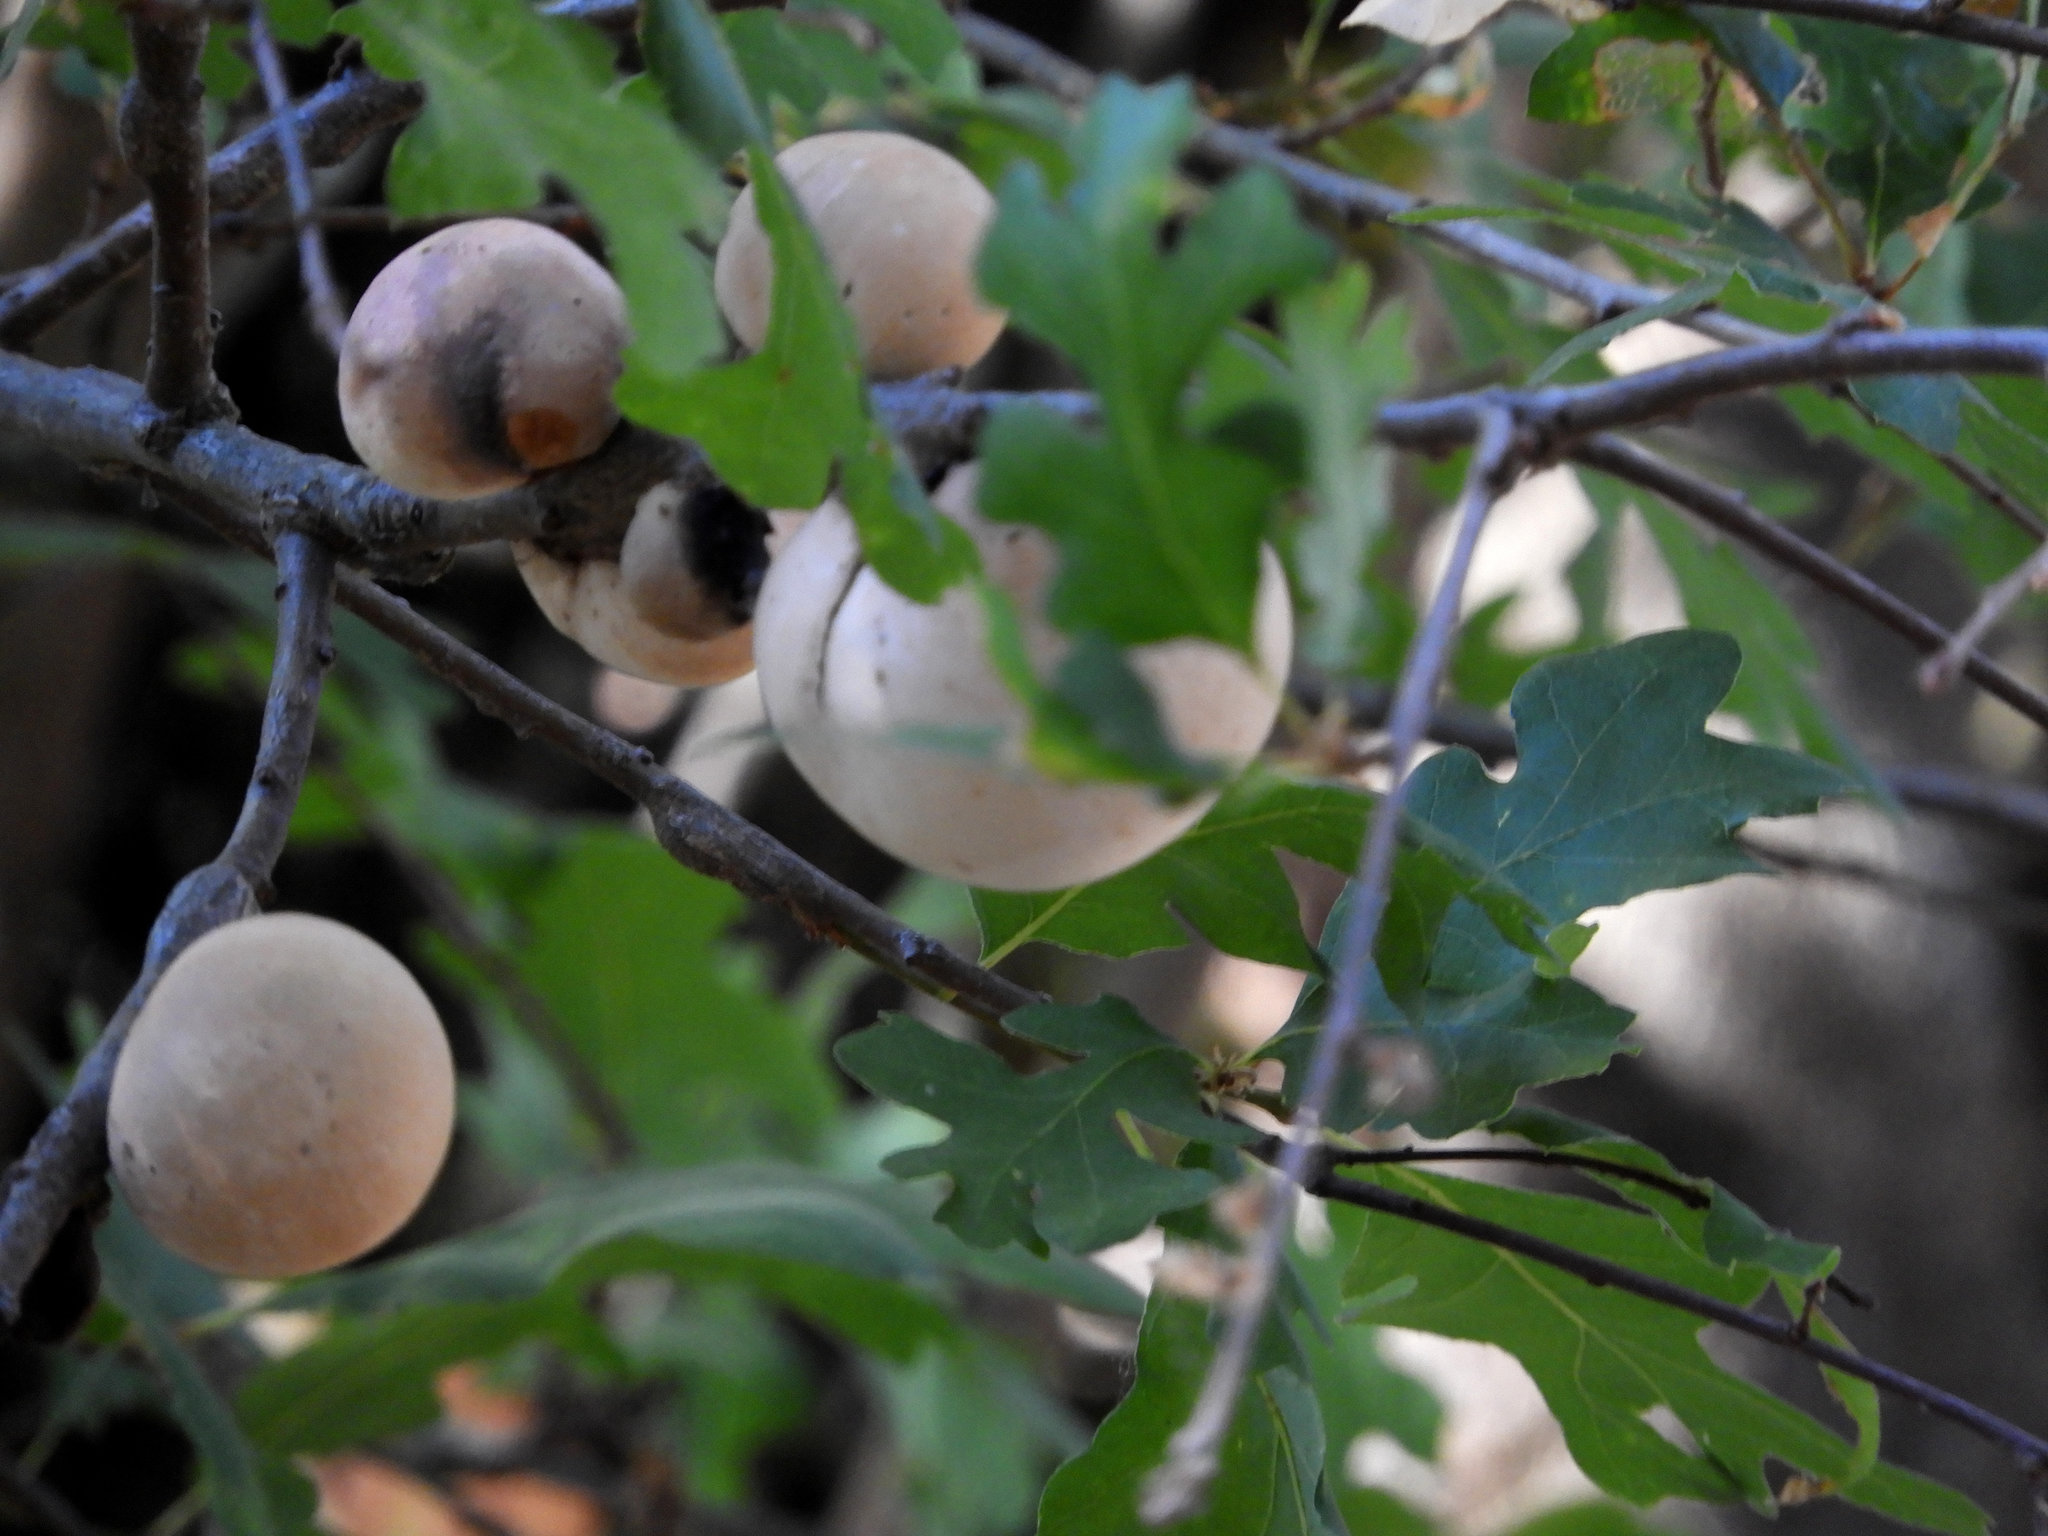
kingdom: Animalia
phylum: Arthropoda
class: Insecta
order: Hymenoptera
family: Cynipidae
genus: Andricus
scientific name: Andricus quercuscalifornicus
